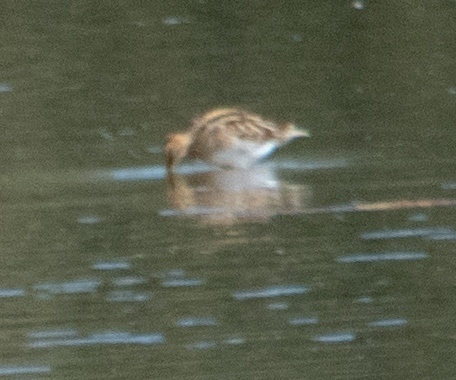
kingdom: Animalia
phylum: Chordata
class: Aves
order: Charadriiformes
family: Scolopacidae
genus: Gallinago
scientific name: Gallinago gallinago
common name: Common snipe
